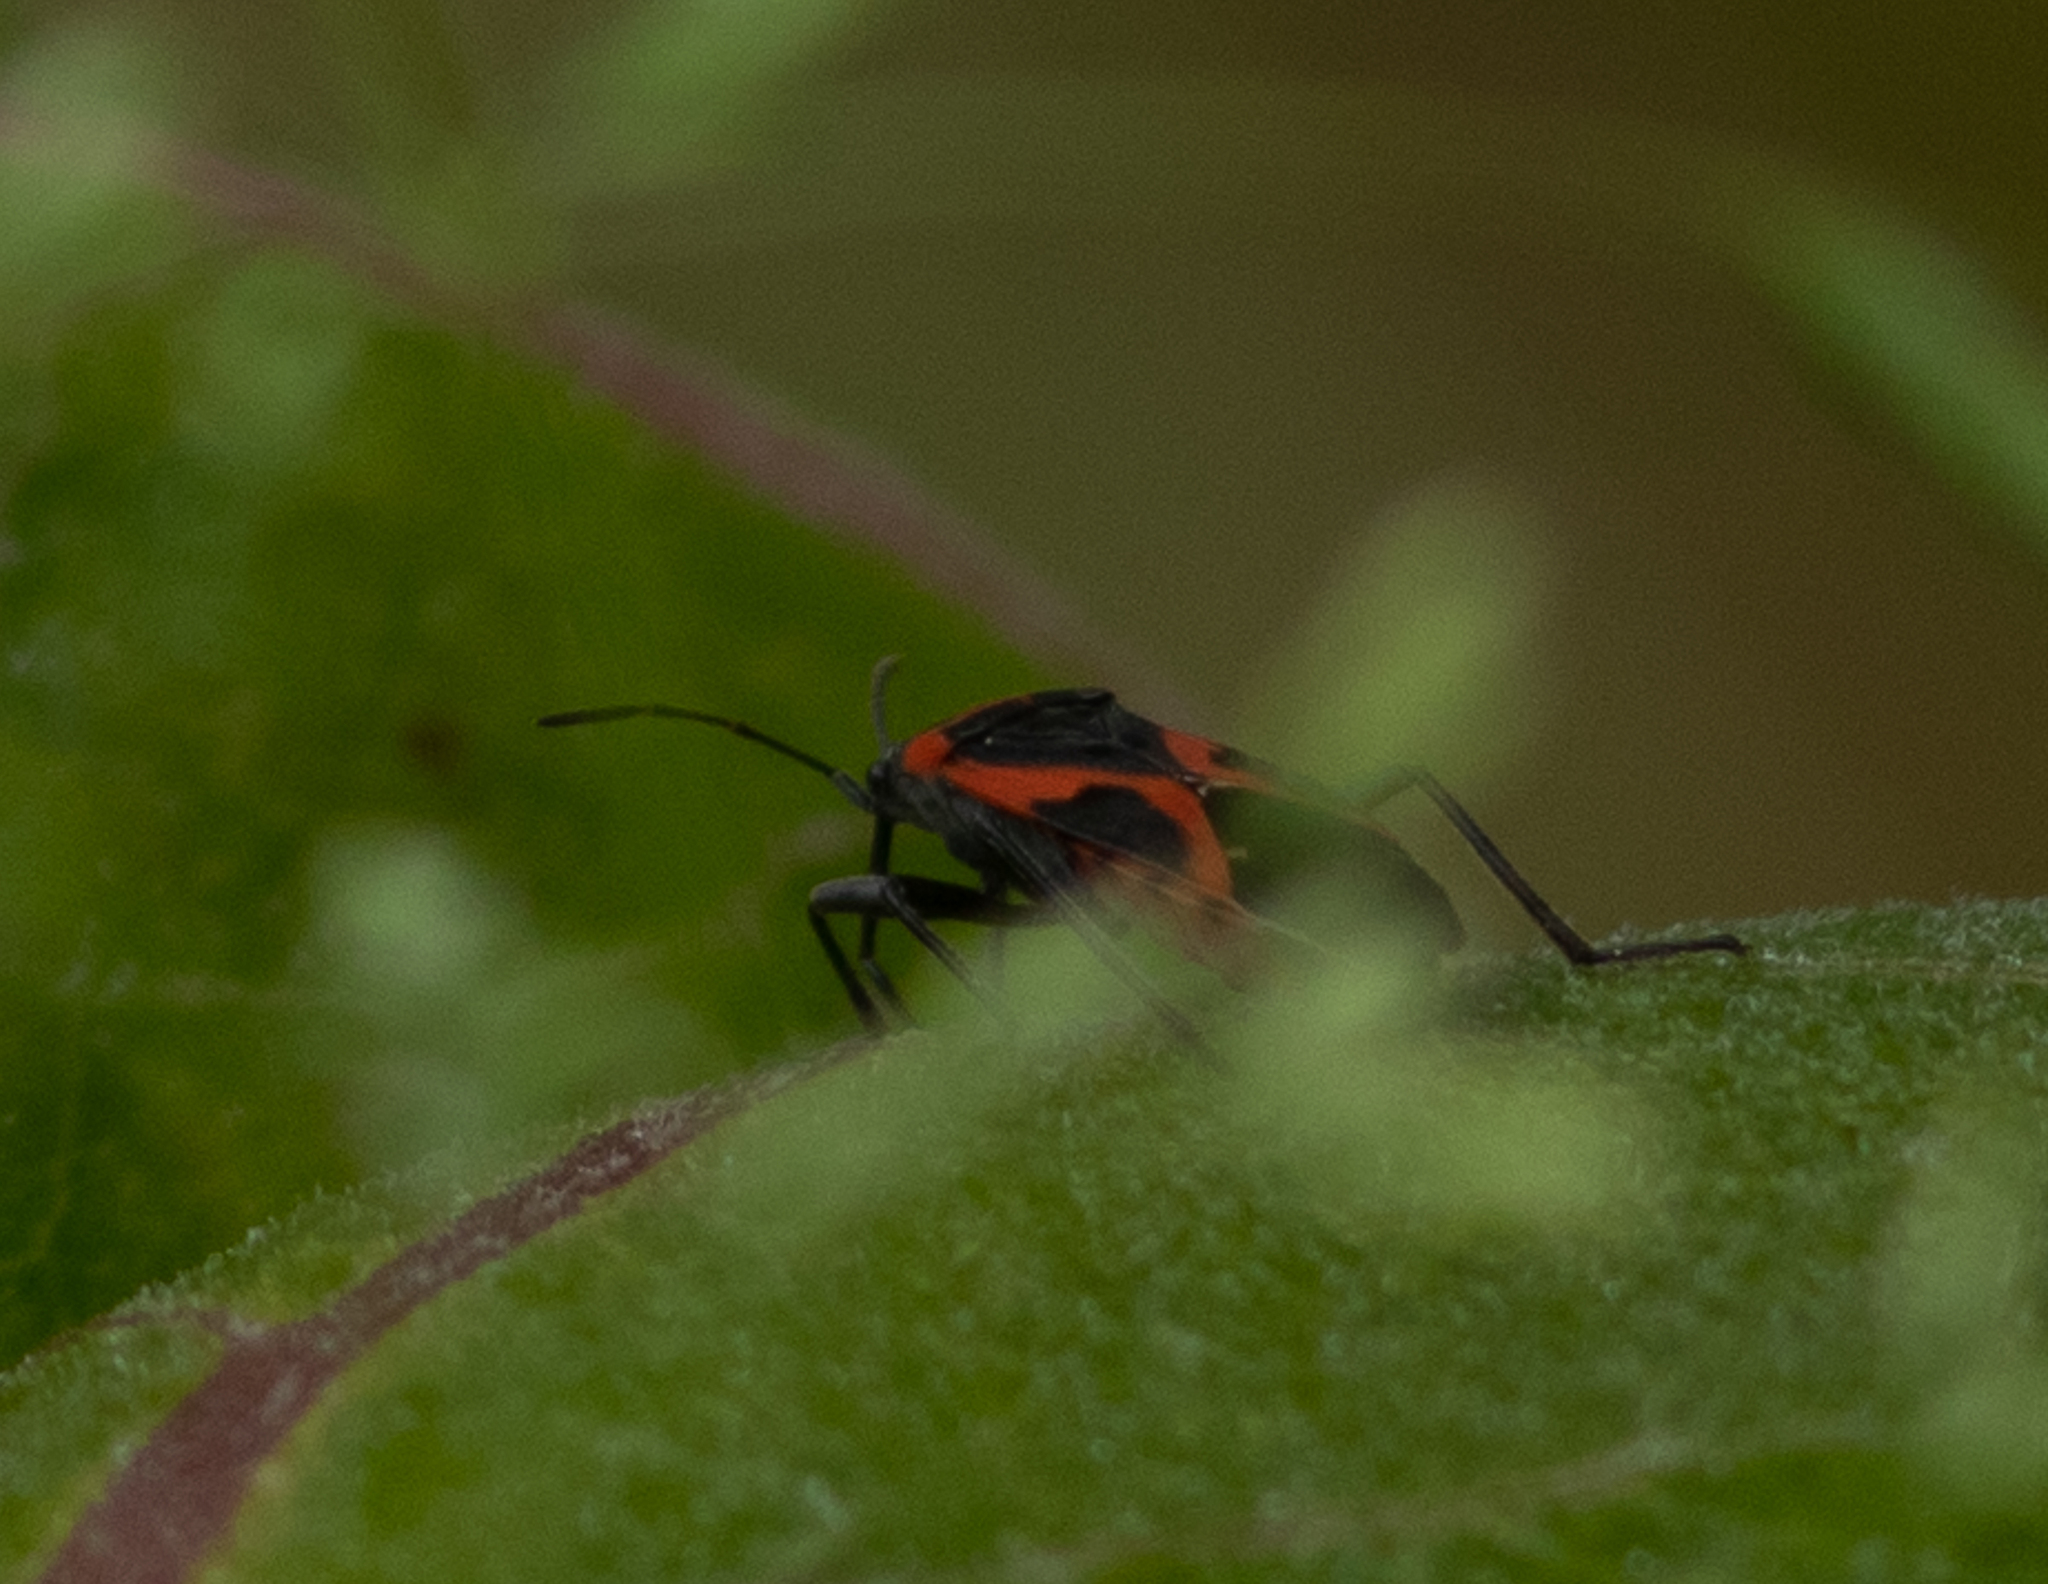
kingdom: Animalia
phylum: Arthropoda
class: Insecta
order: Hemiptera
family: Lygaeidae
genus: Lygaeus
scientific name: Lygaeus kalmii
